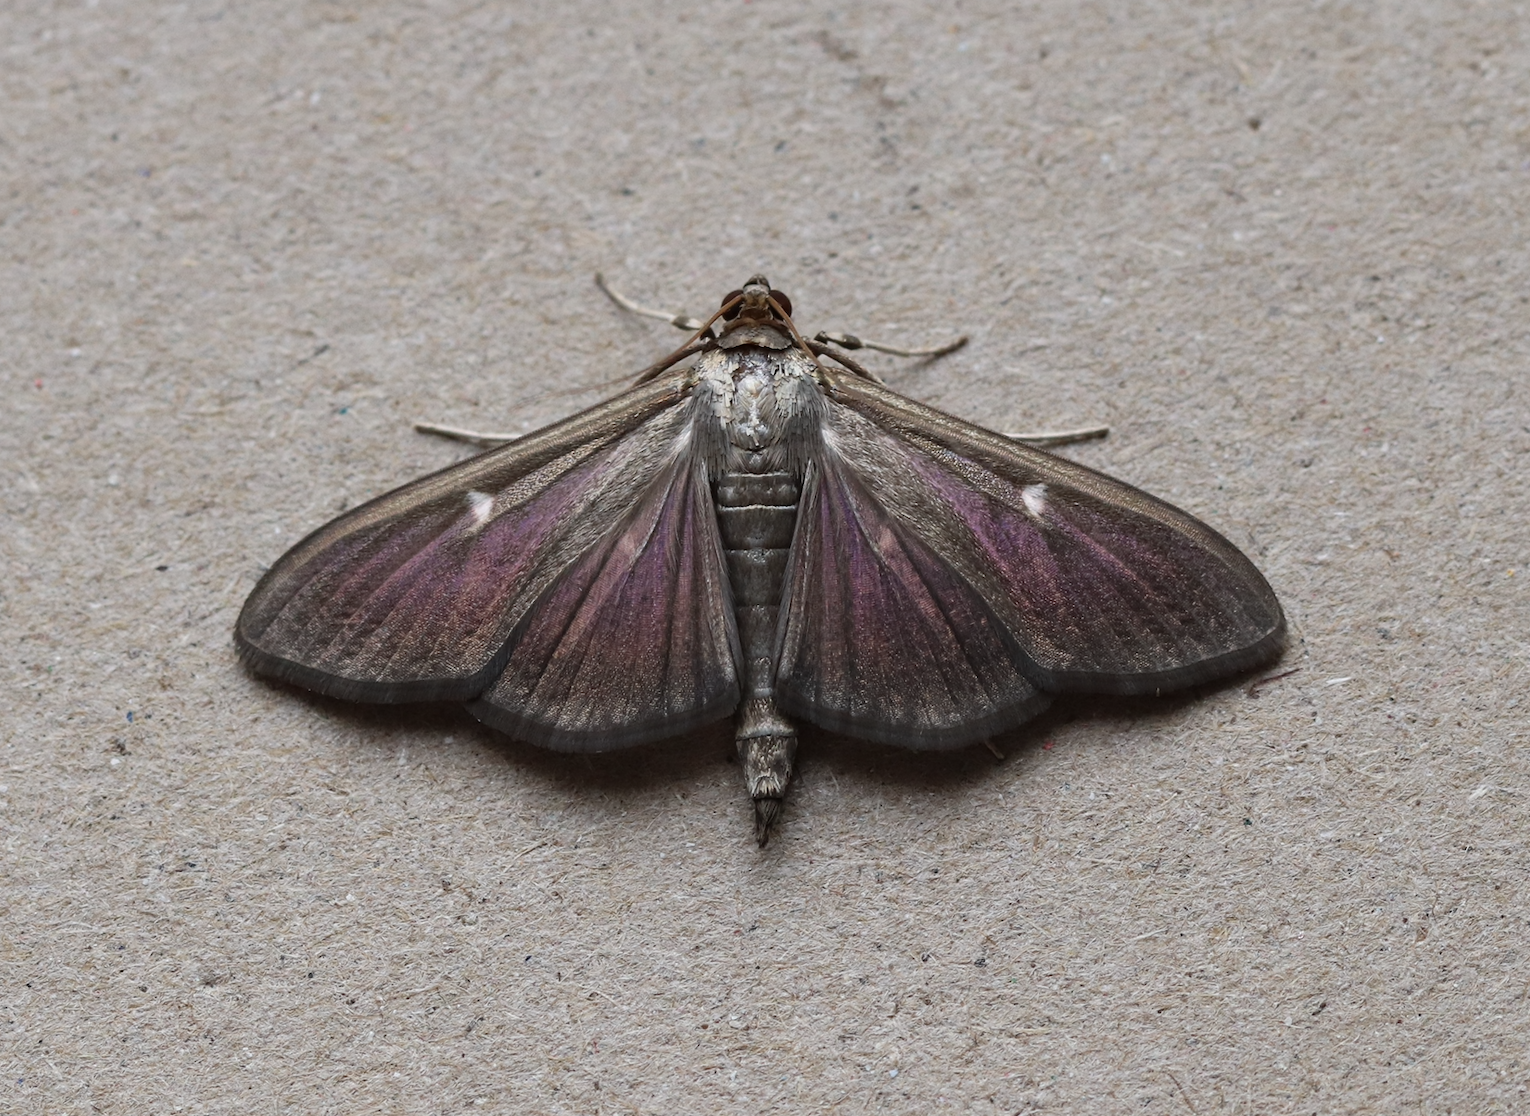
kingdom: Animalia
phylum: Arthropoda
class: Insecta
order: Lepidoptera
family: Crambidae
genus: Cydalima
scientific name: Cydalima perspectalis
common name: Box tree moth
